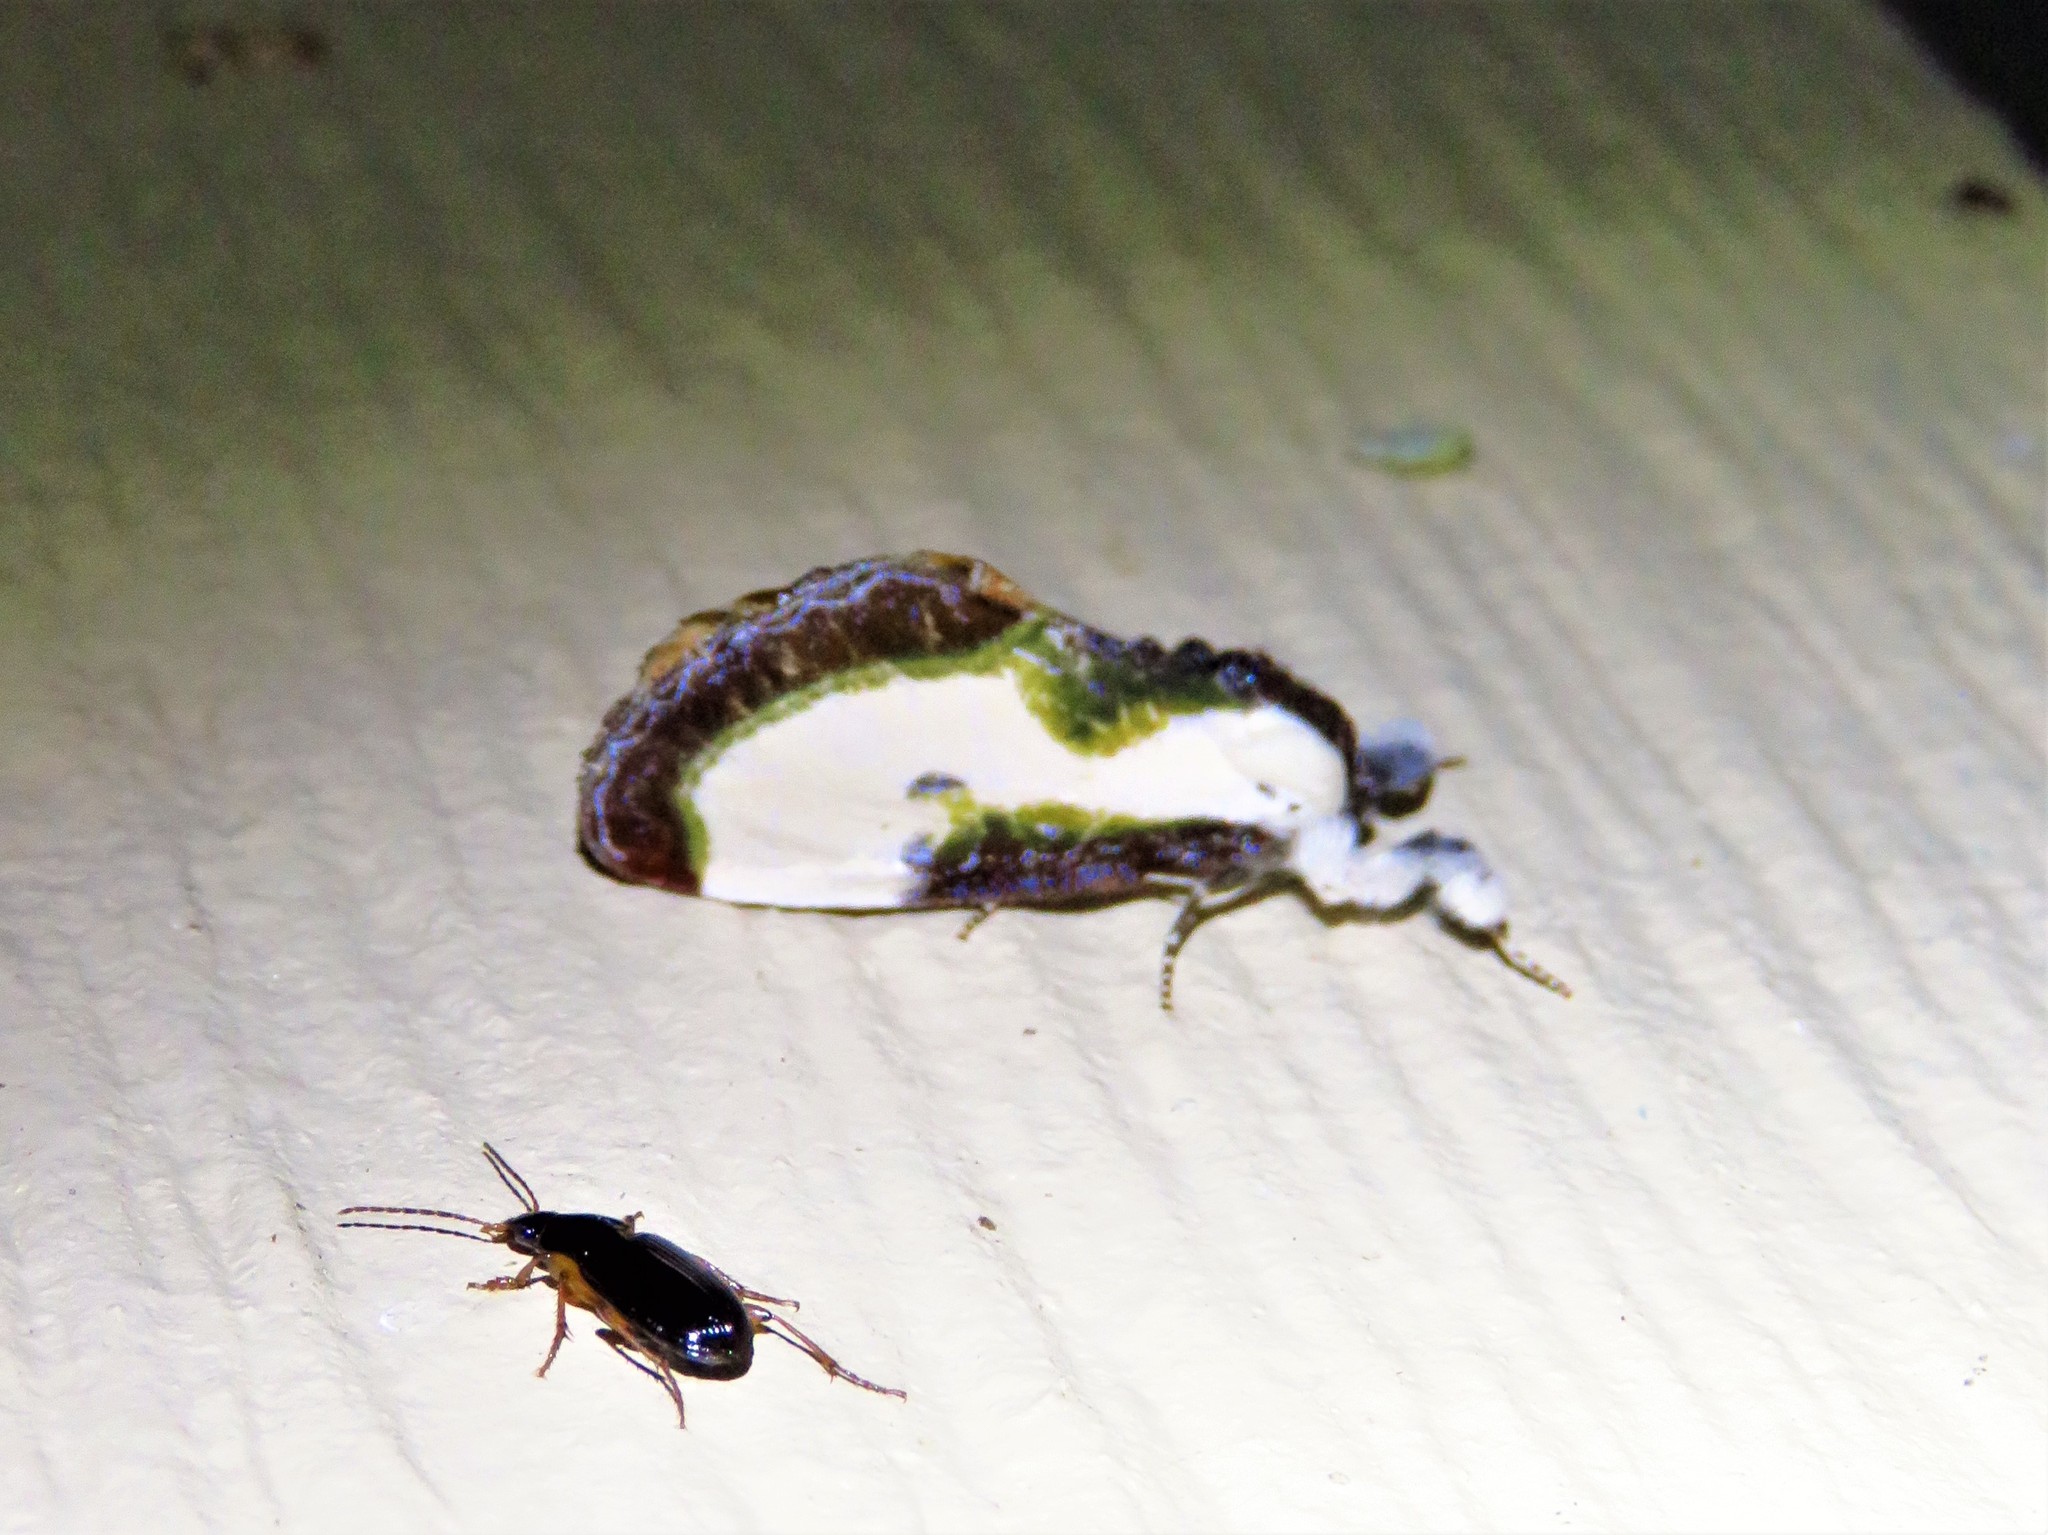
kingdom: Animalia
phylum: Arthropoda
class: Insecta
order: Lepidoptera
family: Noctuidae
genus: Eudryas
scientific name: Eudryas grata
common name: Beautiful wood-nymph
